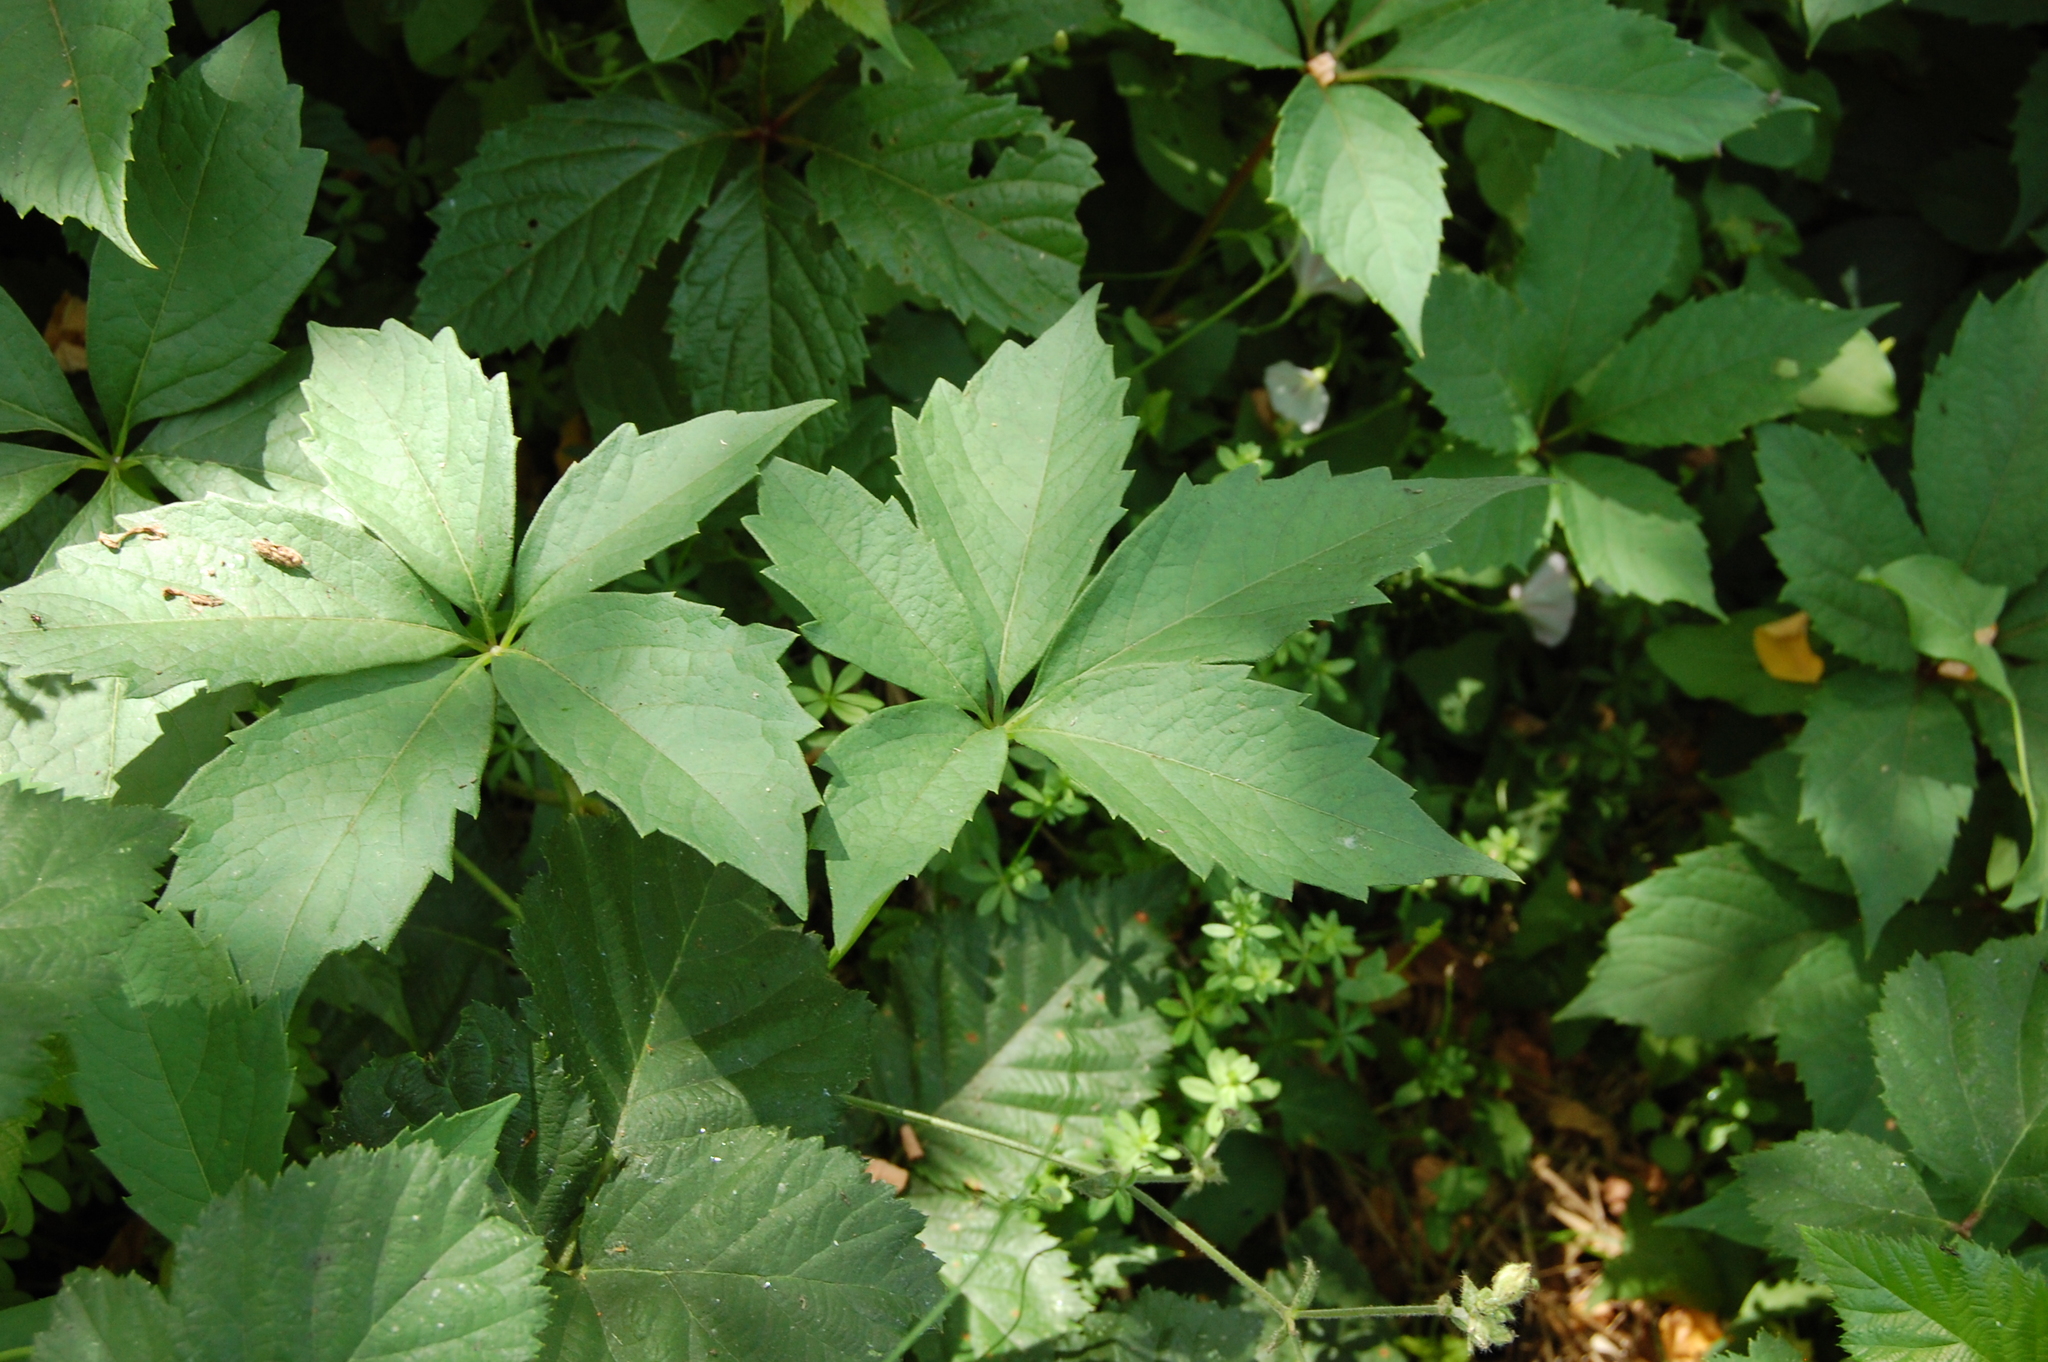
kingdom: Plantae
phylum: Tracheophyta
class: Magnoliopsida
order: Vitales
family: Vitaceae
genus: Parthenocissus
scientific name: Parthenocissus quinquefolia
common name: Virginia-creeper
